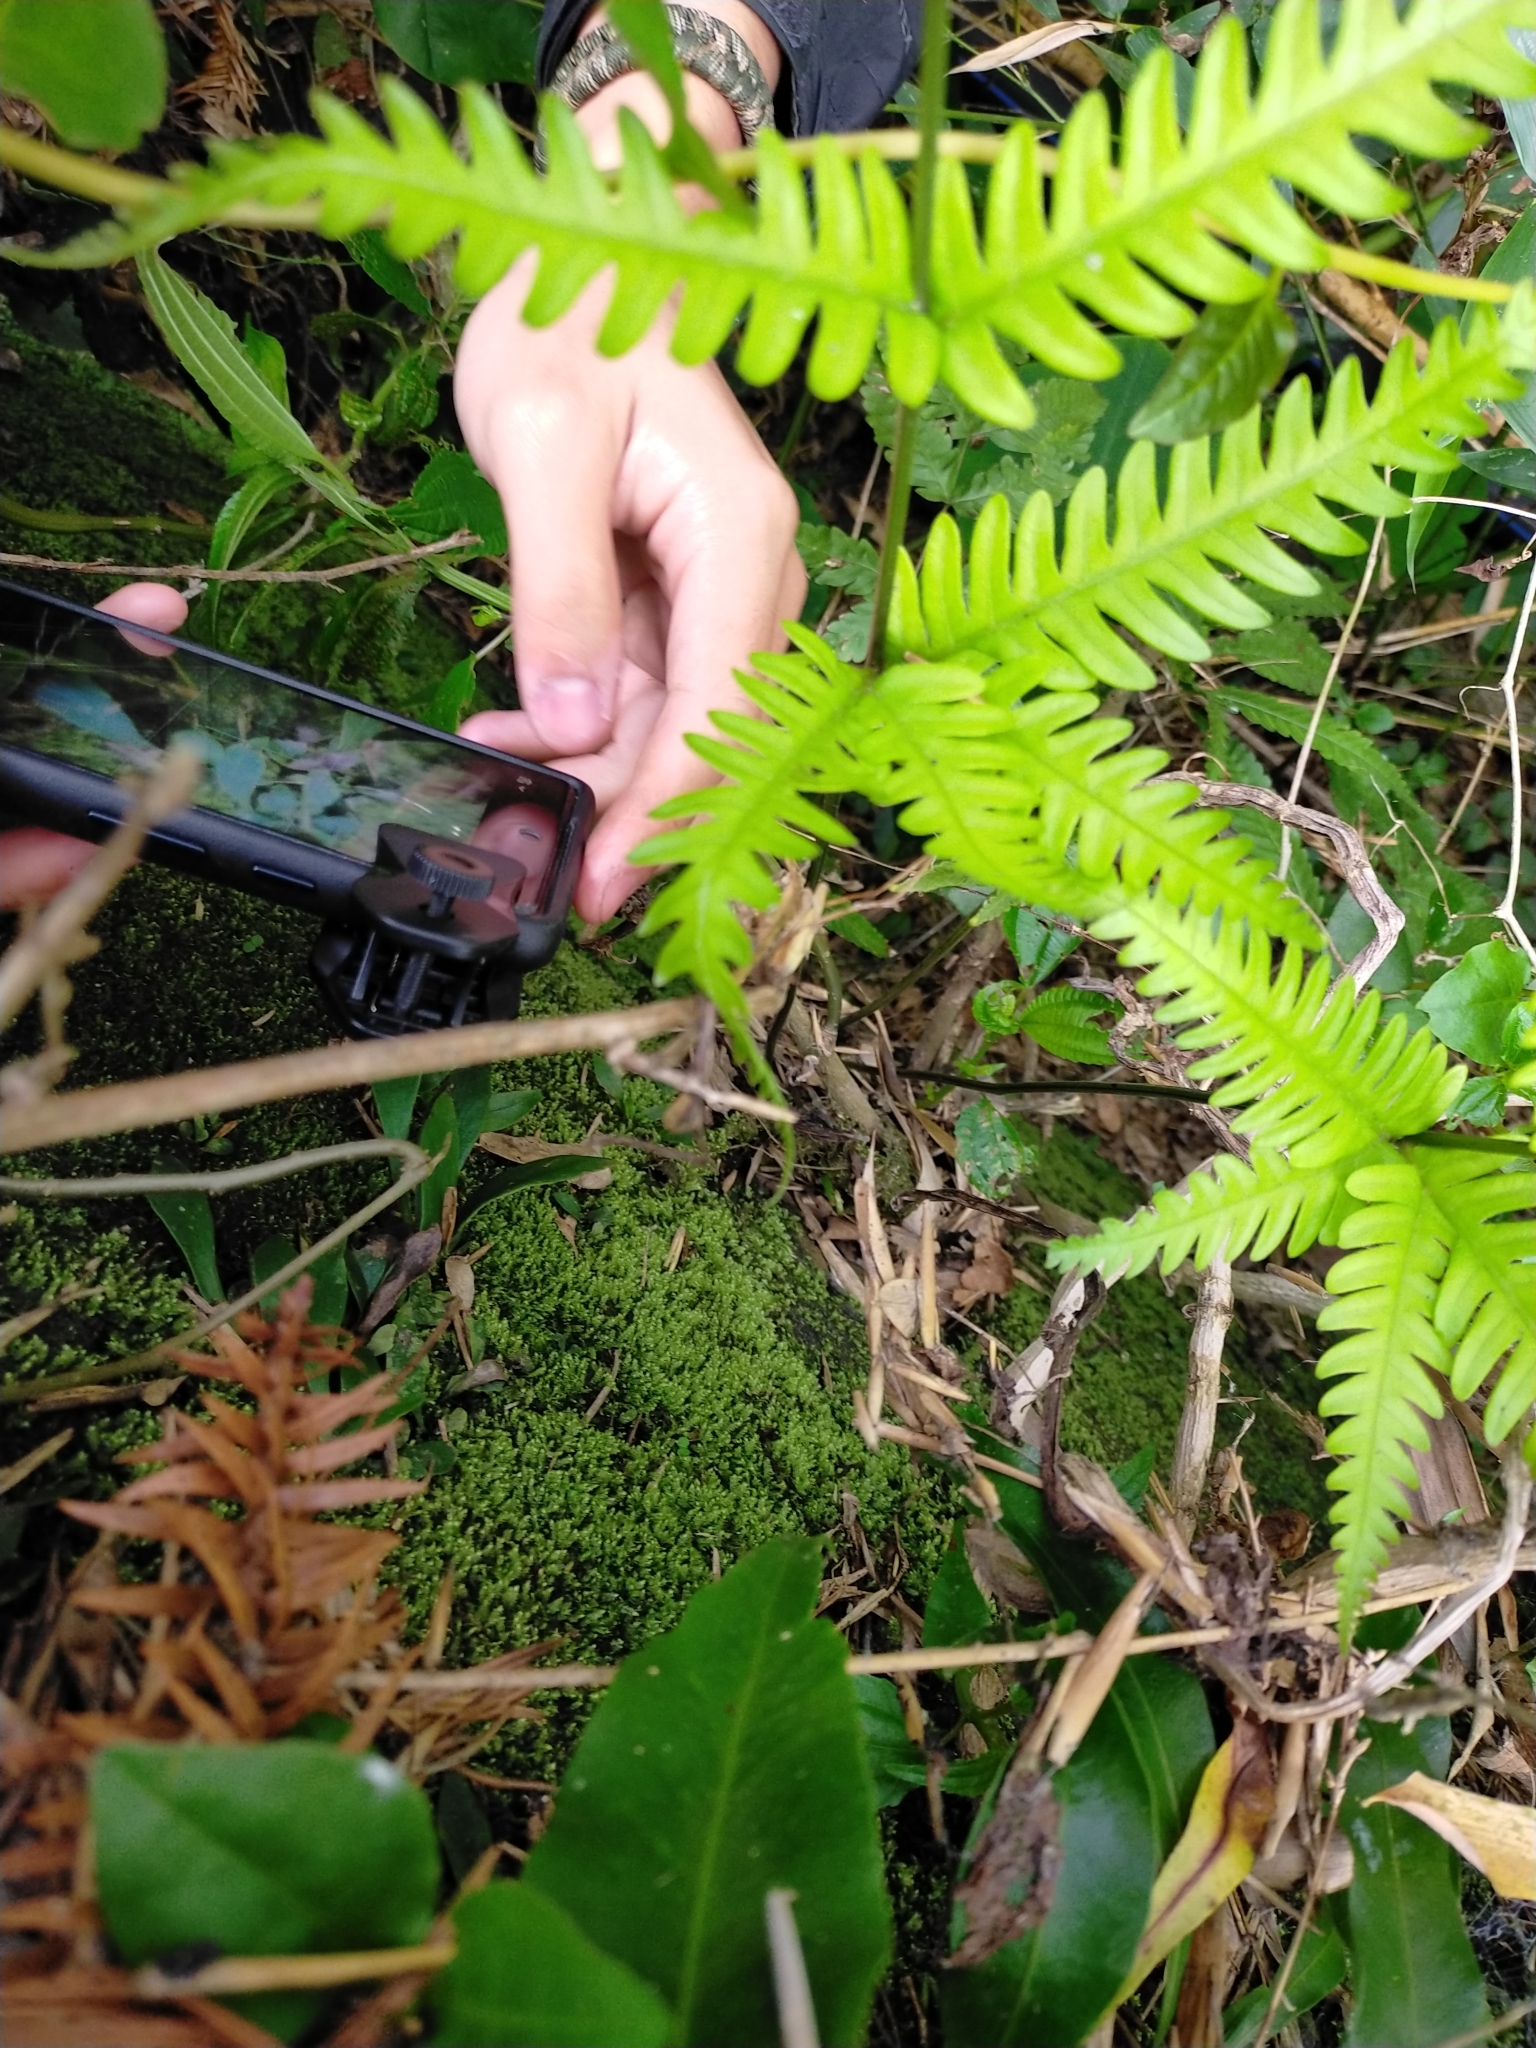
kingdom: Plantae
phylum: Tracheophyta
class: Polypodiopsida
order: Polypodiales
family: Pteridaceae
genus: Pteris
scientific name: Pteris fauriei
